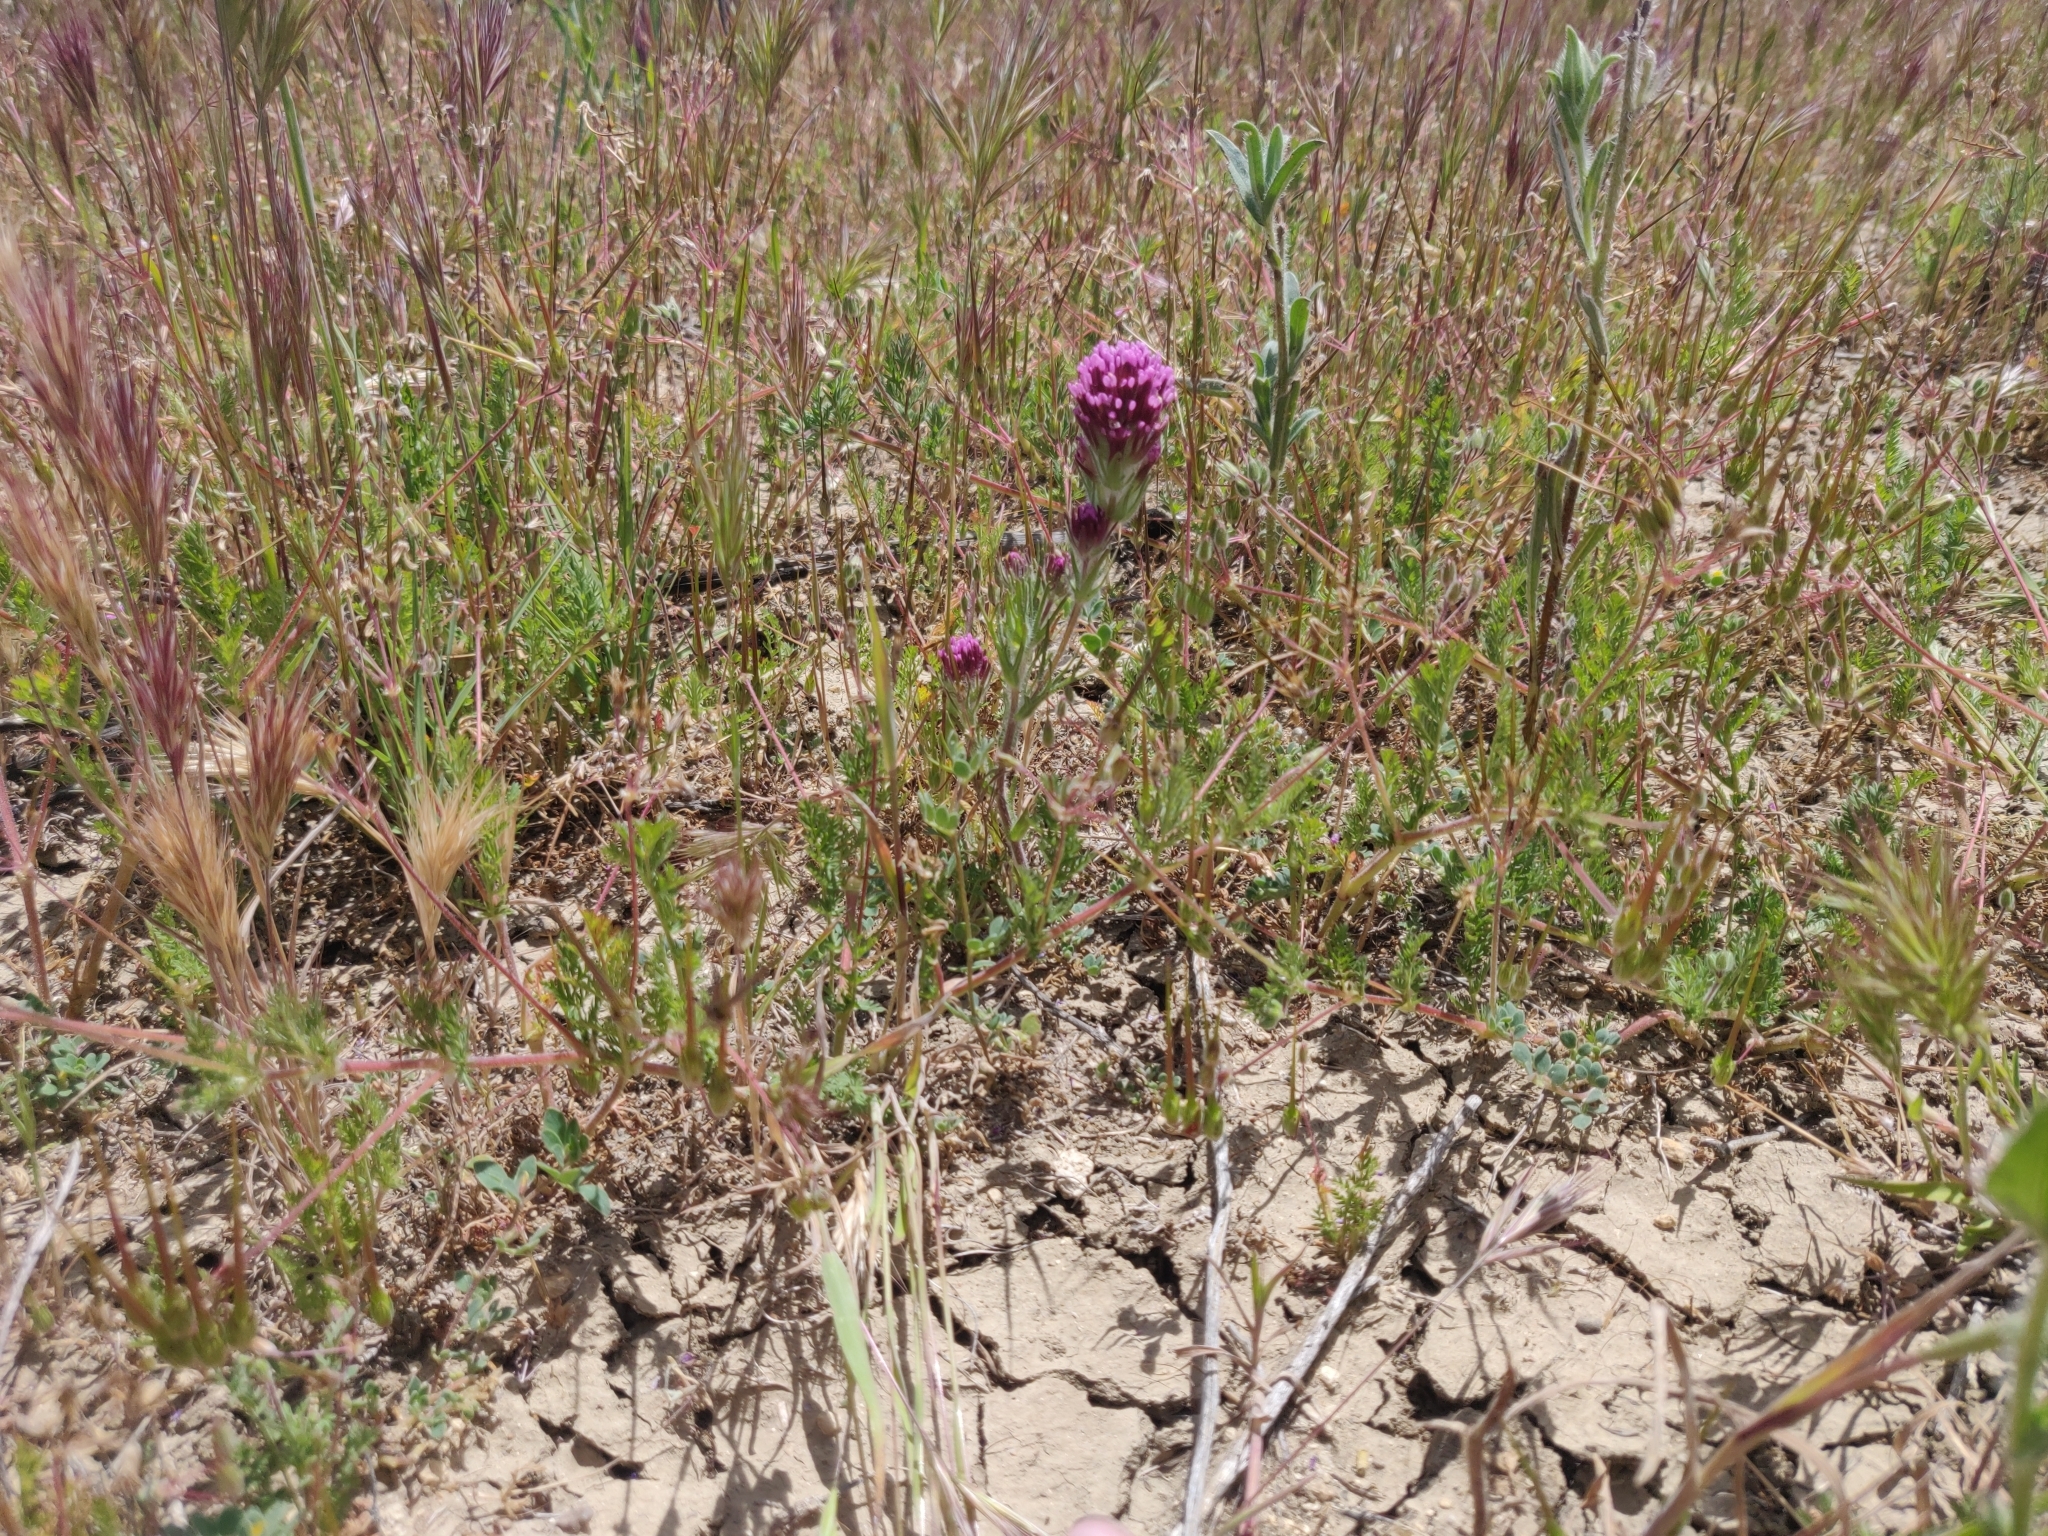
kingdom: Plantae
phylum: Tracheophyta
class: Magnoliopsida
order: Lamiales
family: Orobanchaceae
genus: Castilleja
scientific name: Castilleja exserta
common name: Purple owl-clover
